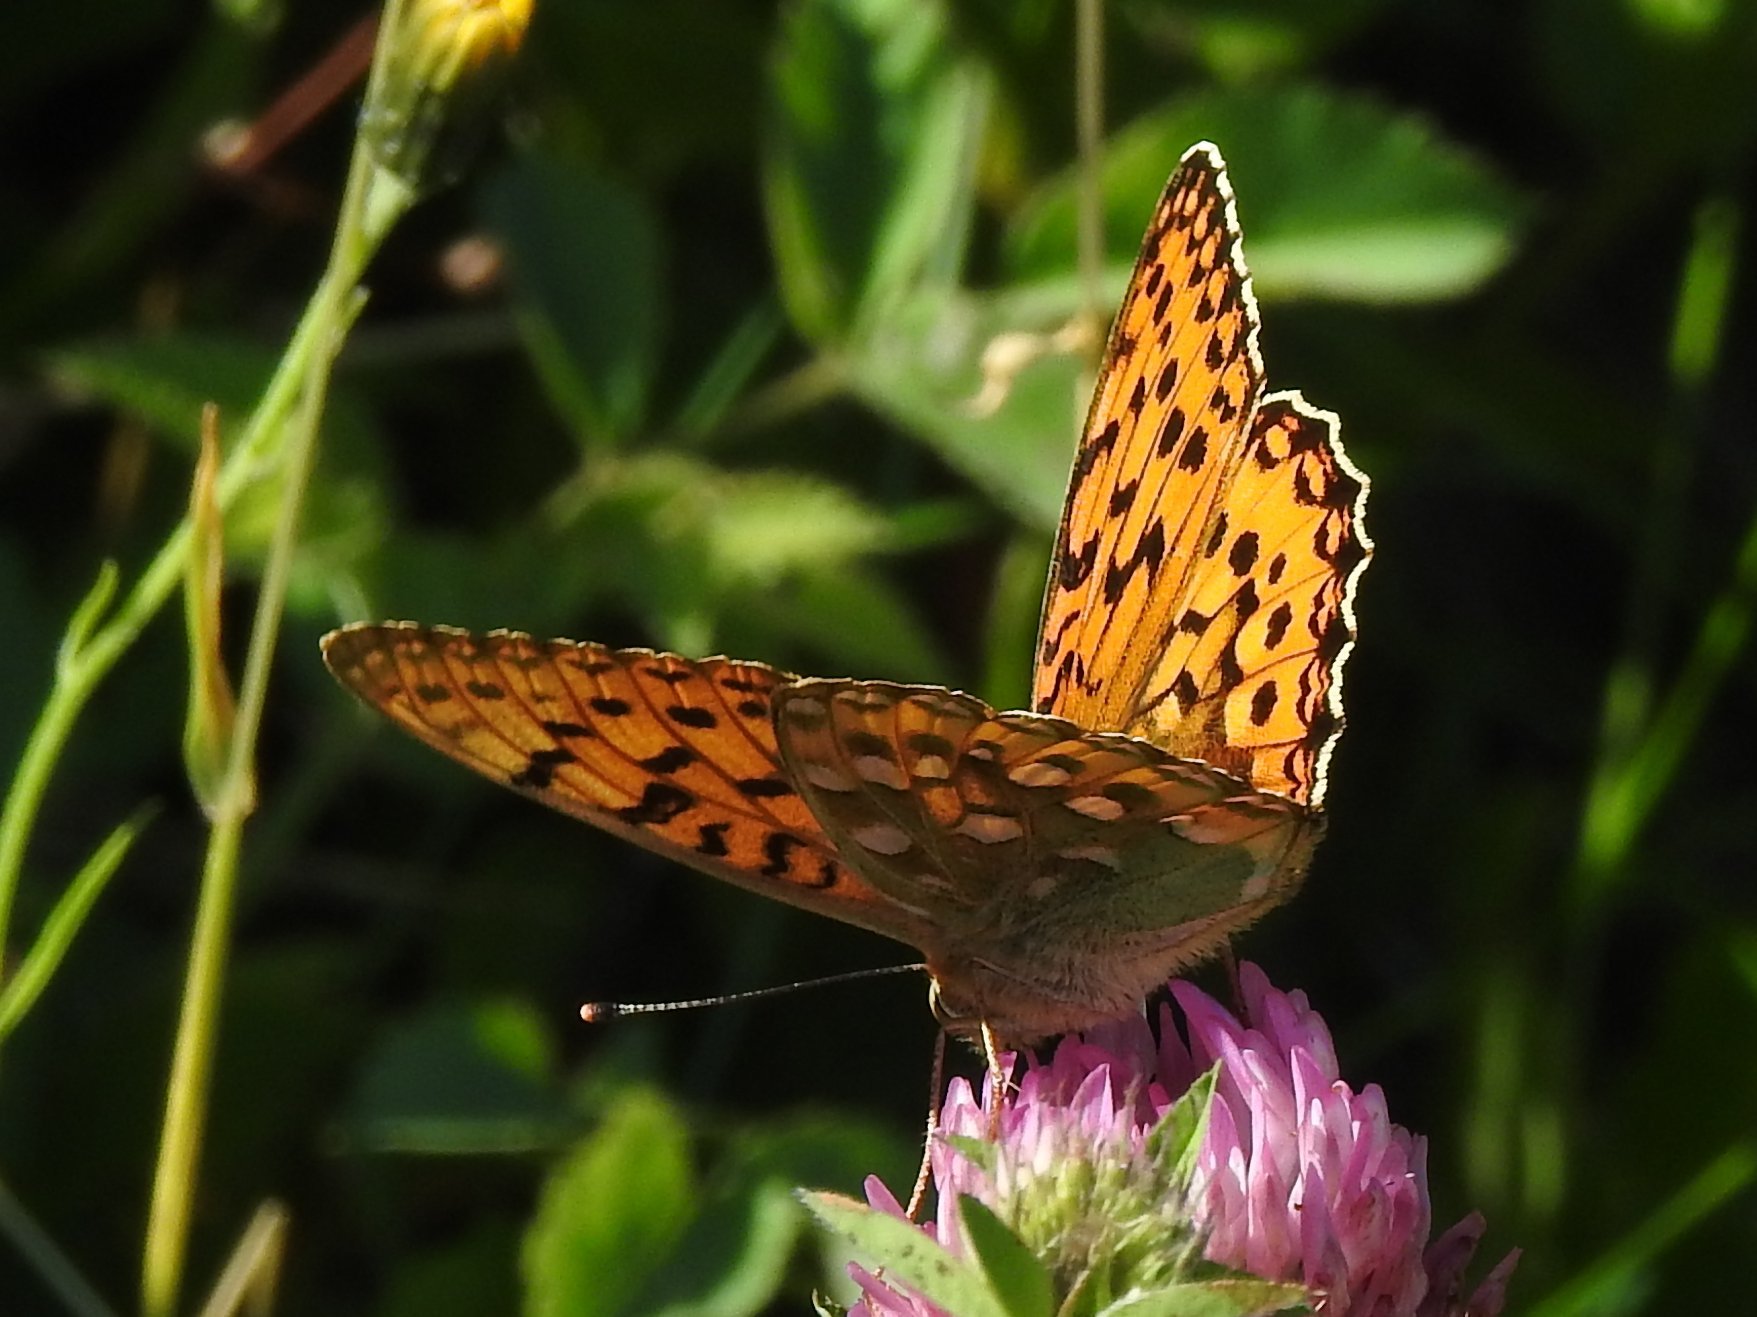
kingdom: Animalia
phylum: Arthropoda
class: Insecta
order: Lepidoptera
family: Nymphalidae
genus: Speyeria
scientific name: Speyeria aglaja
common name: Dark green fritillary
